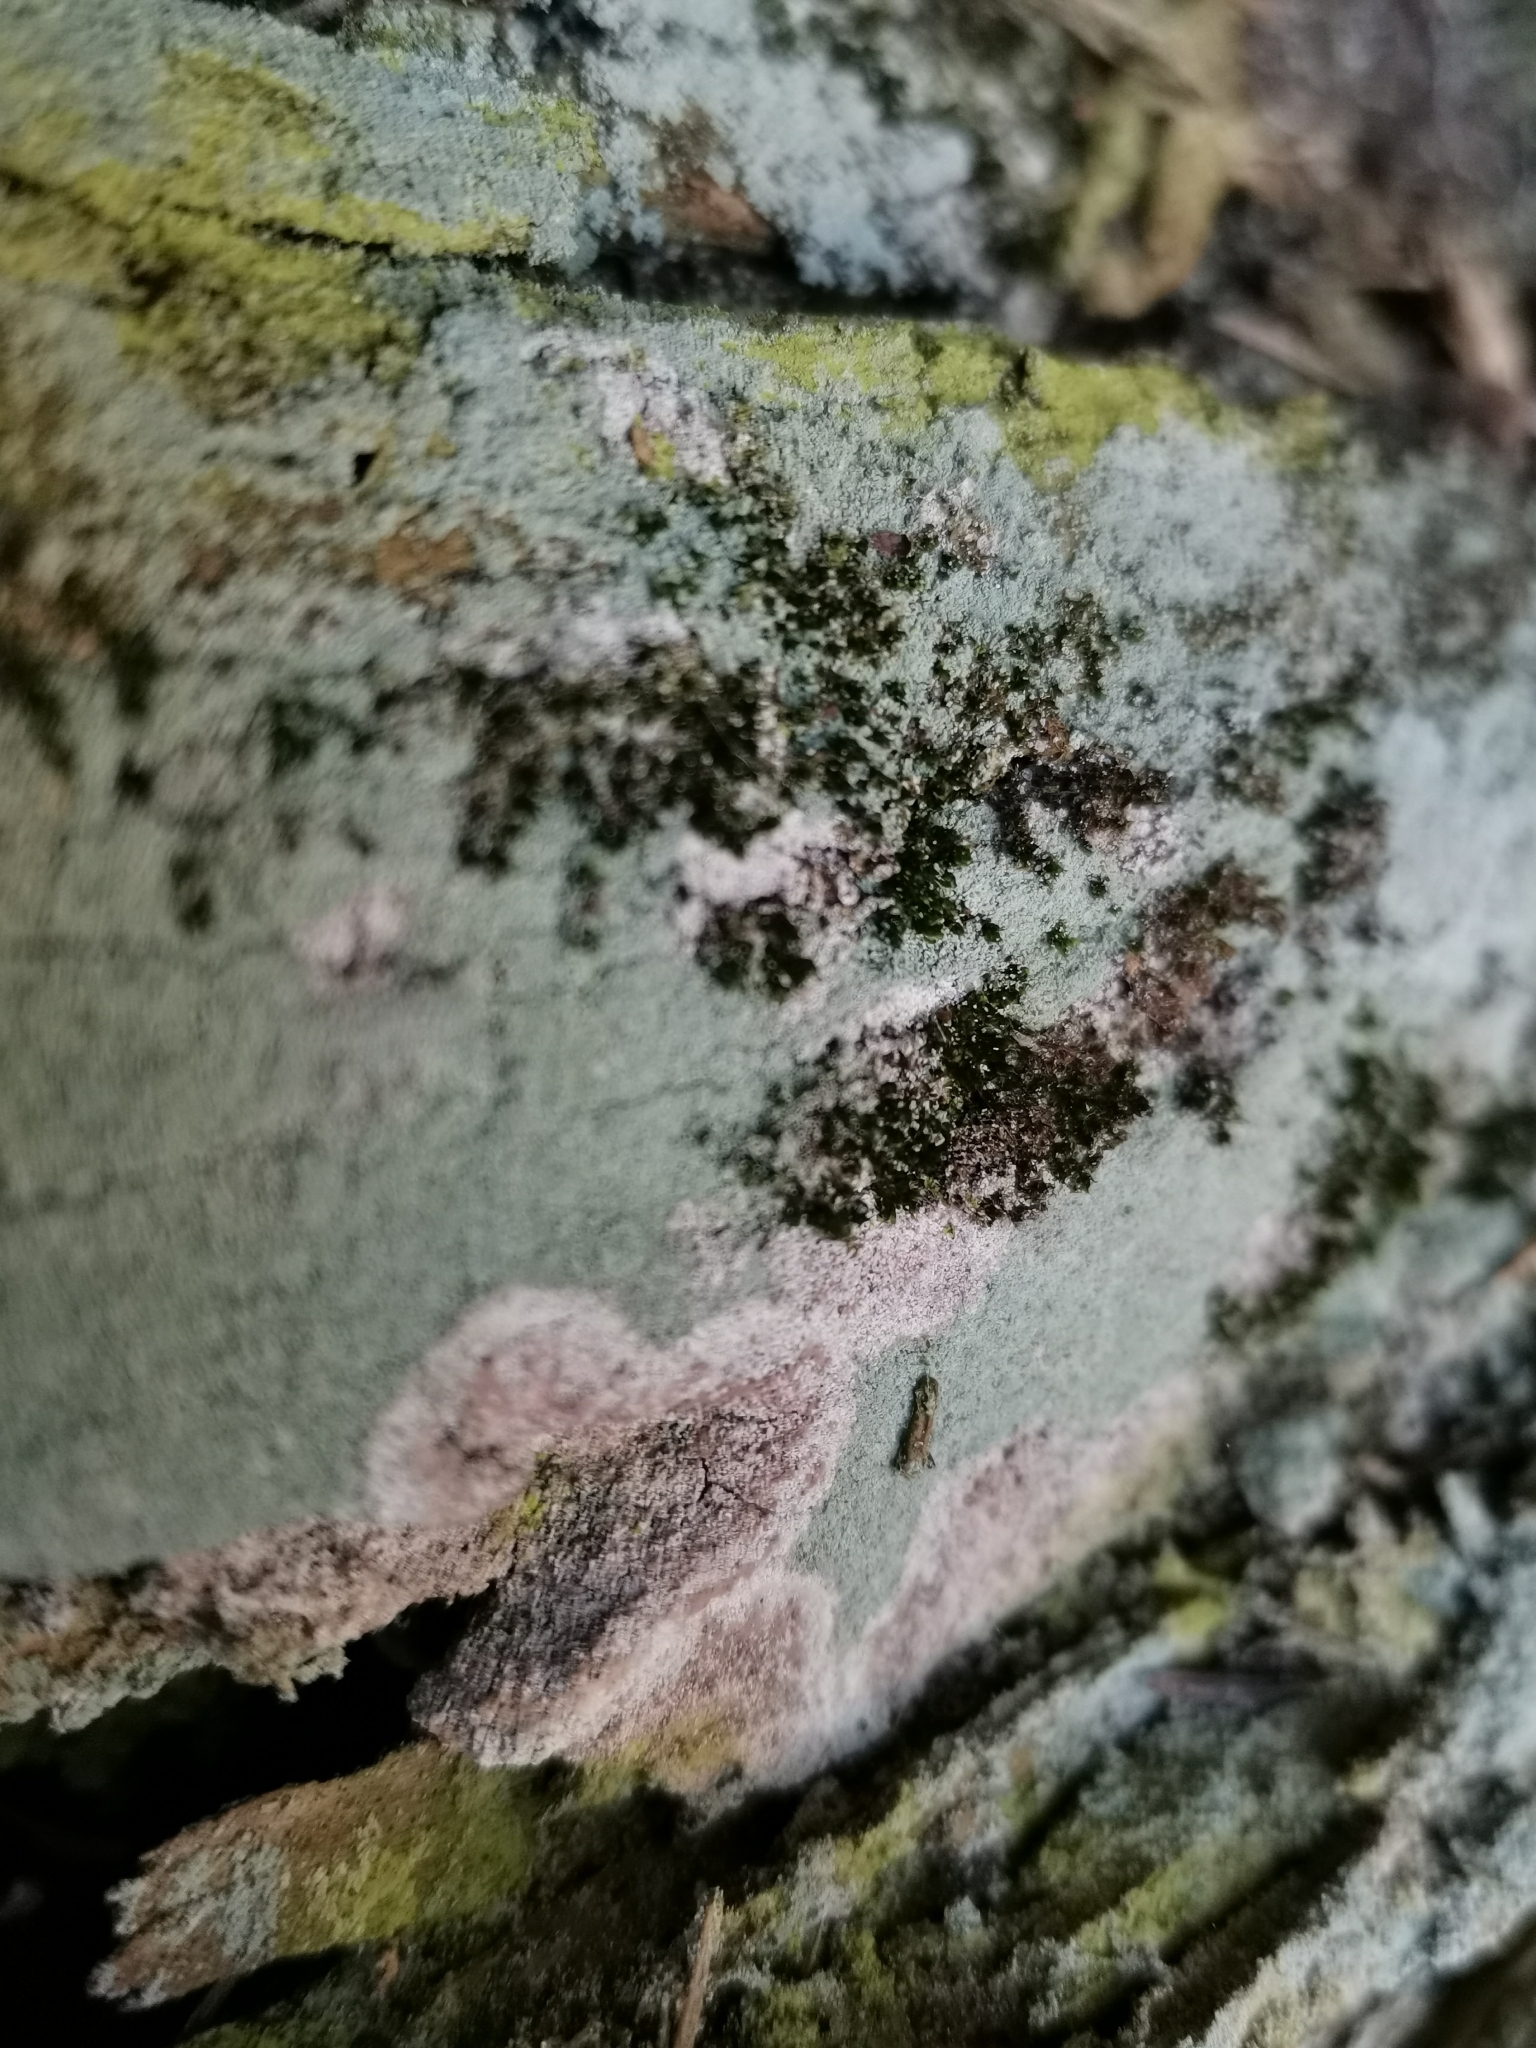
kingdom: Fungi
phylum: Basidiomycota
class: Agaricomycetes
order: Atheliales
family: Atheliaceae
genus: Athelia
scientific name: Athelia arachnoidea
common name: Candelabra duster
